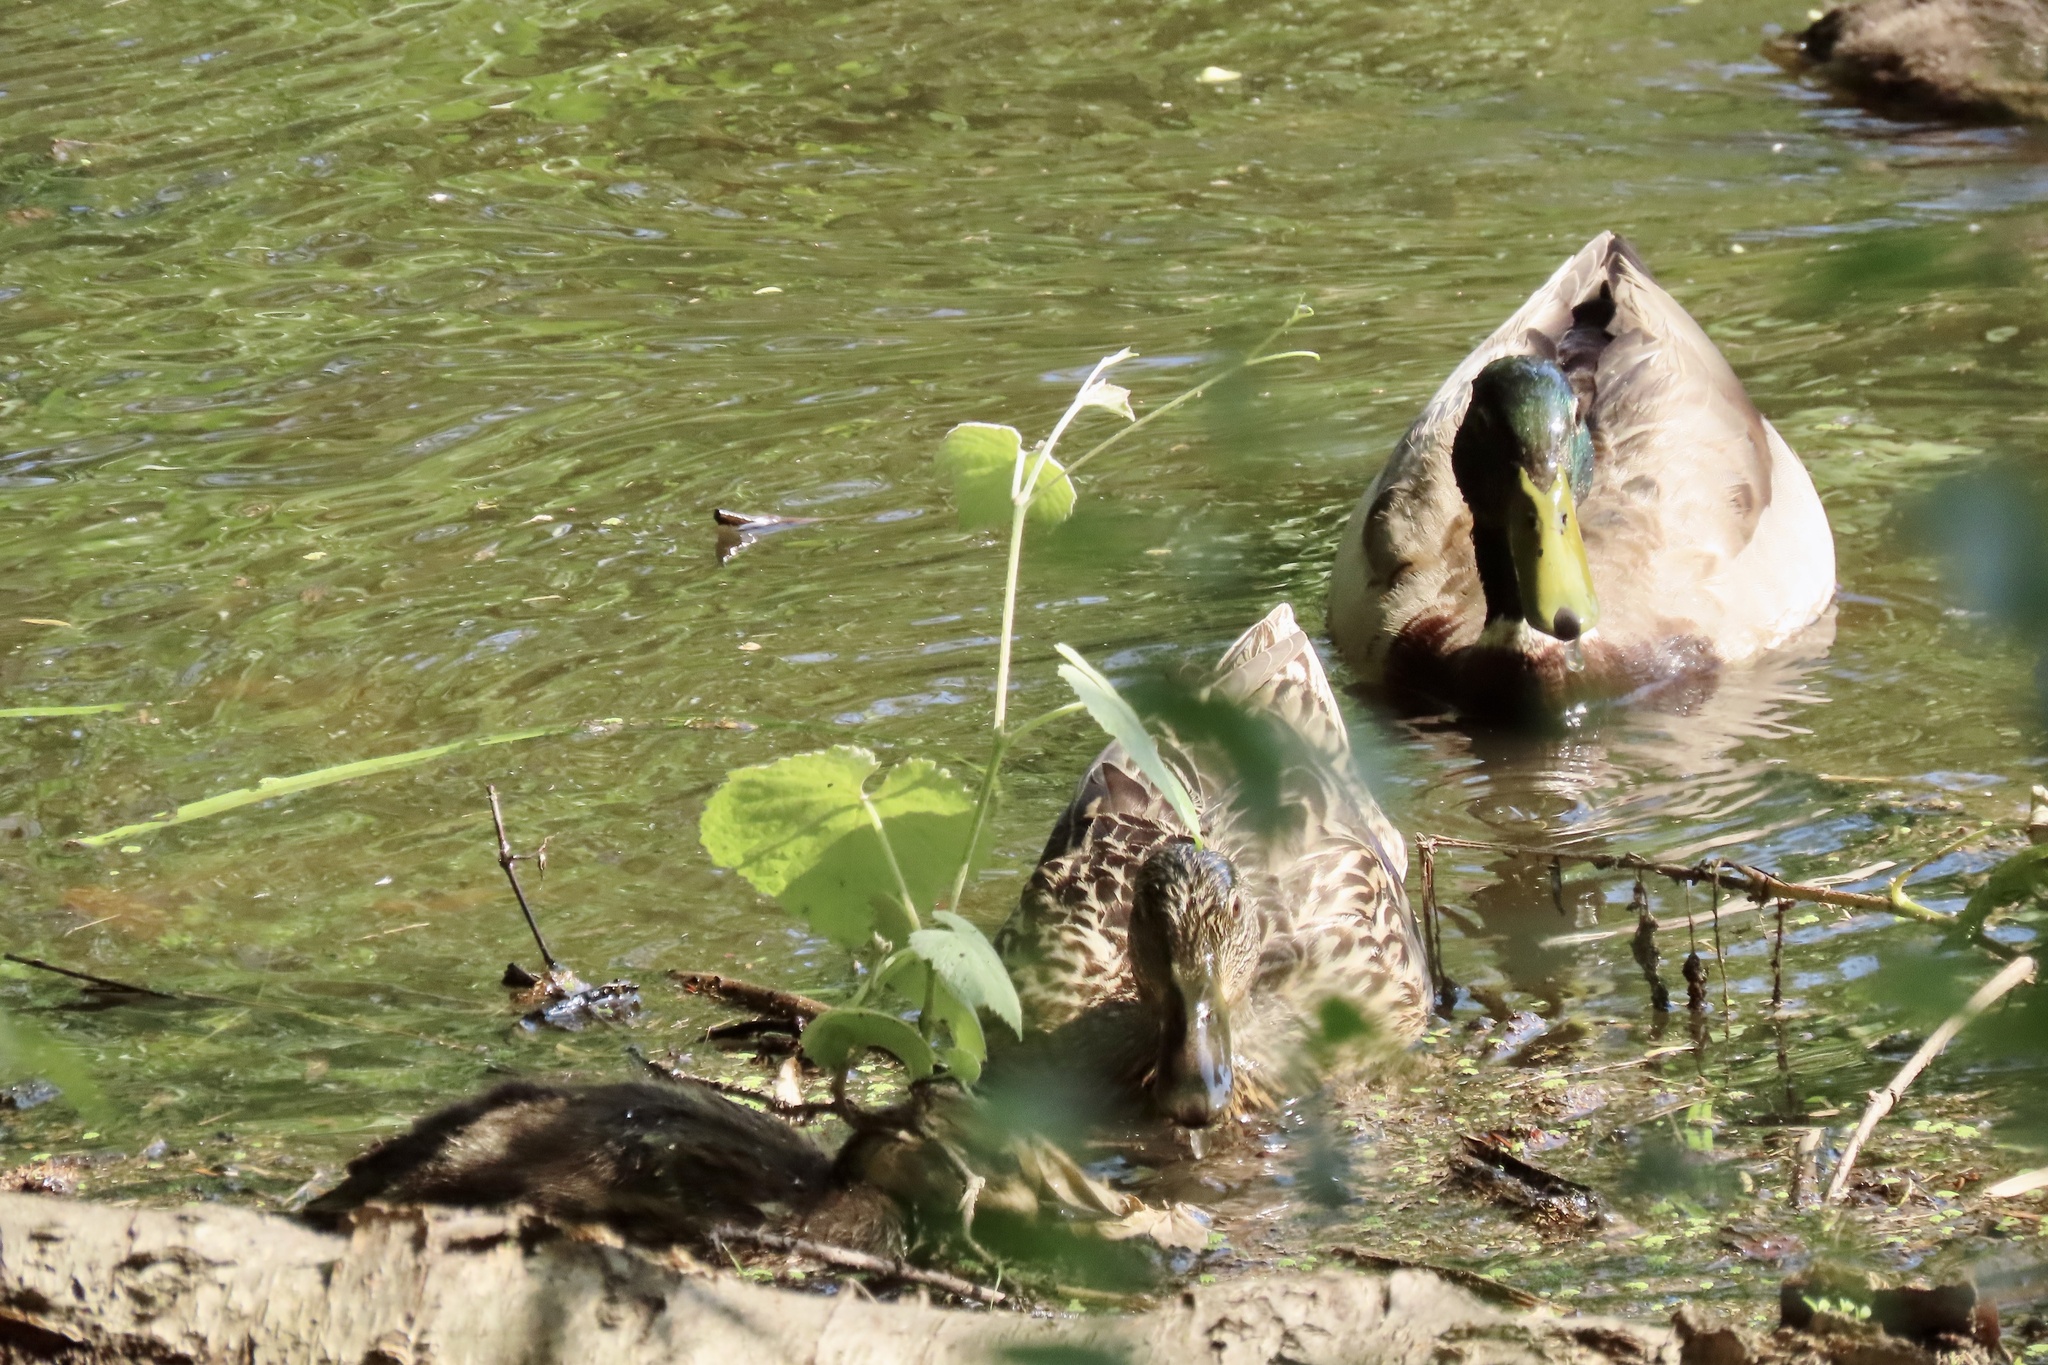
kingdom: Animalia
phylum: Chordata
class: Aves
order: Anseriformes
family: Anatidae
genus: Anas
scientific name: Anas platyrhynchos
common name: Mallard
